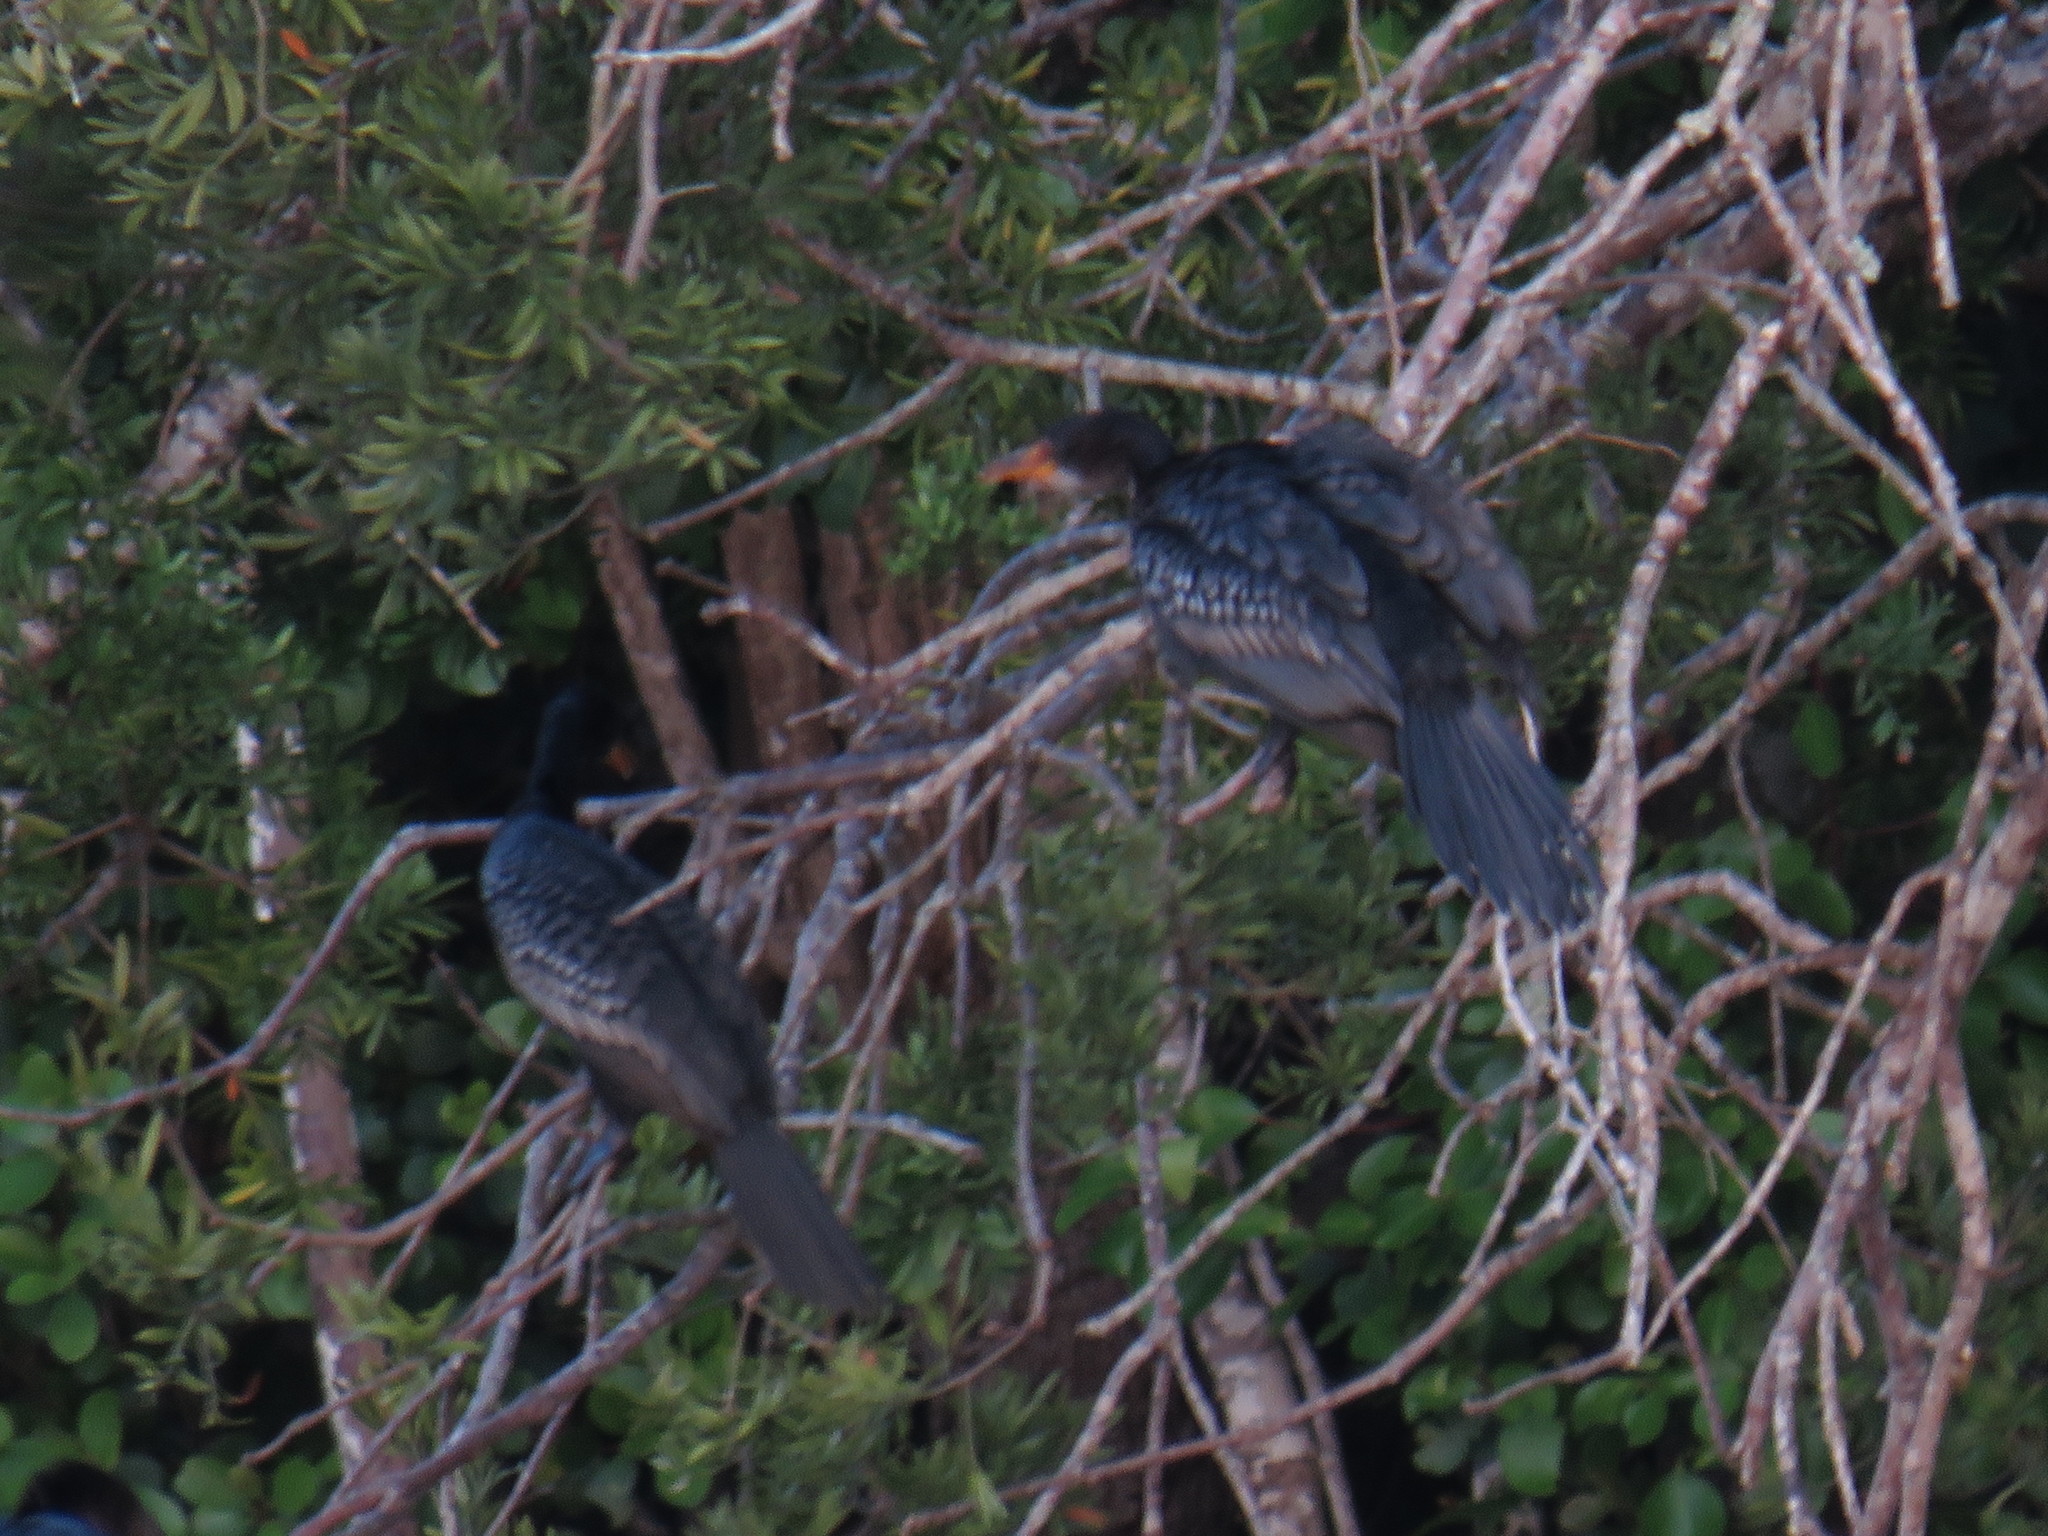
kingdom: Animalia
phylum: Chordata
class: Aves
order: Suliformes
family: Phalacrocoracidae
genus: Microcarbo
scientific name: Microcarbo africanus
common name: Long-tailed cormorant
